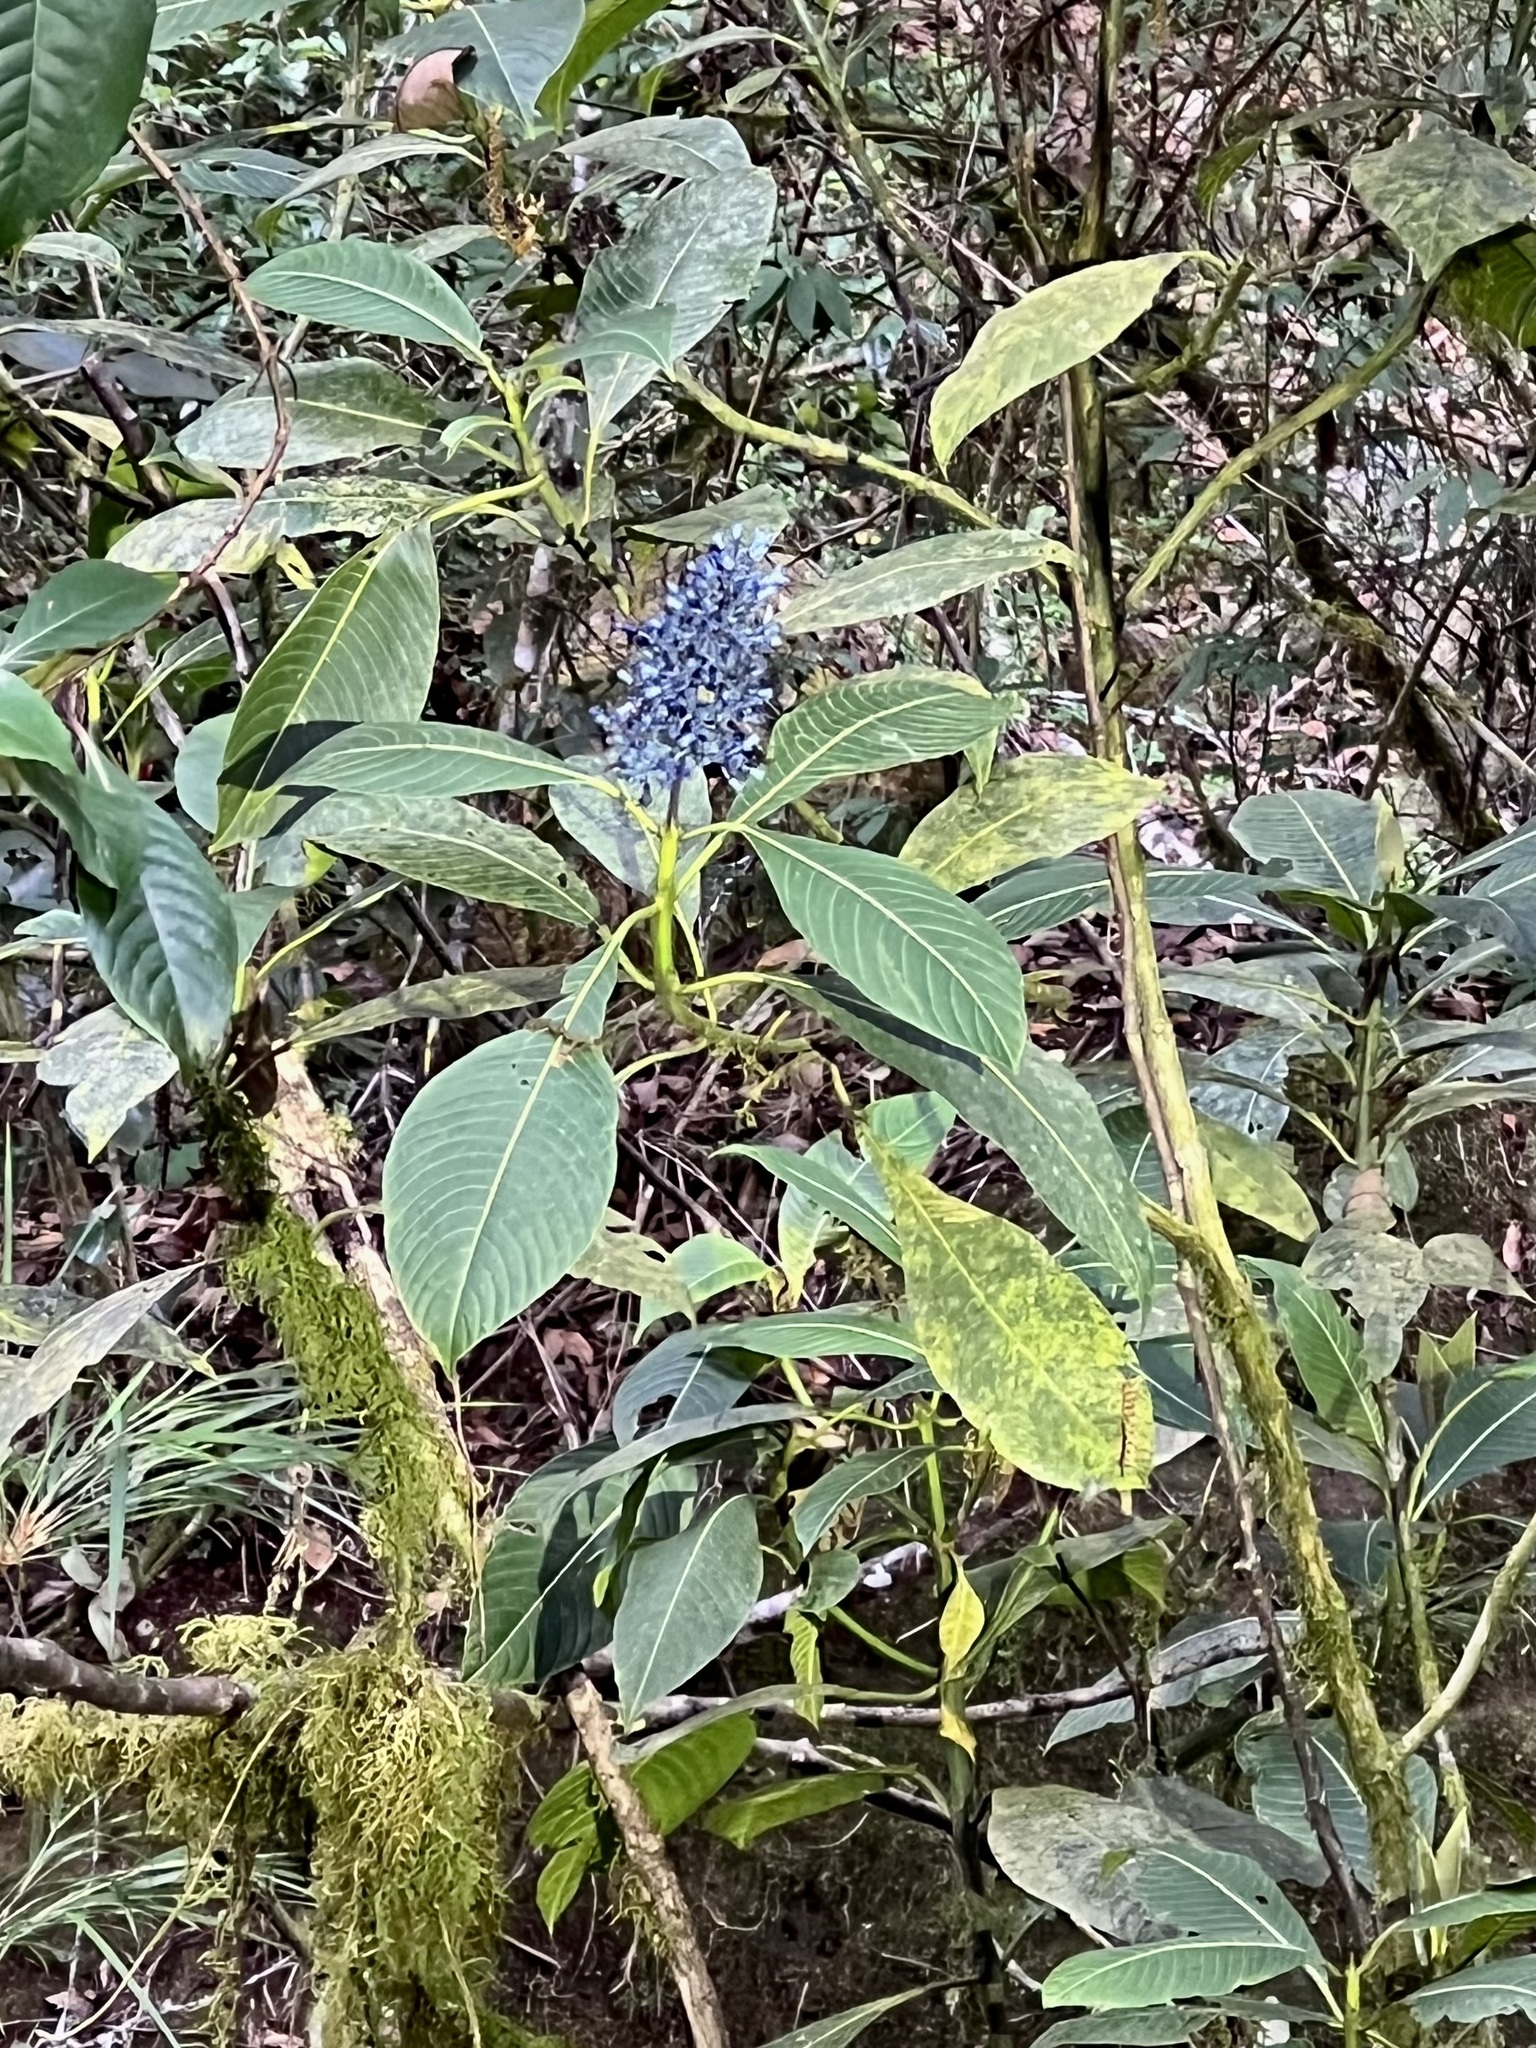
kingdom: Plantae
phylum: Tracheophyta
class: Magnoliopsida
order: Gentianales
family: Rubiaceae
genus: Palicourea
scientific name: Palicourea brenesii
